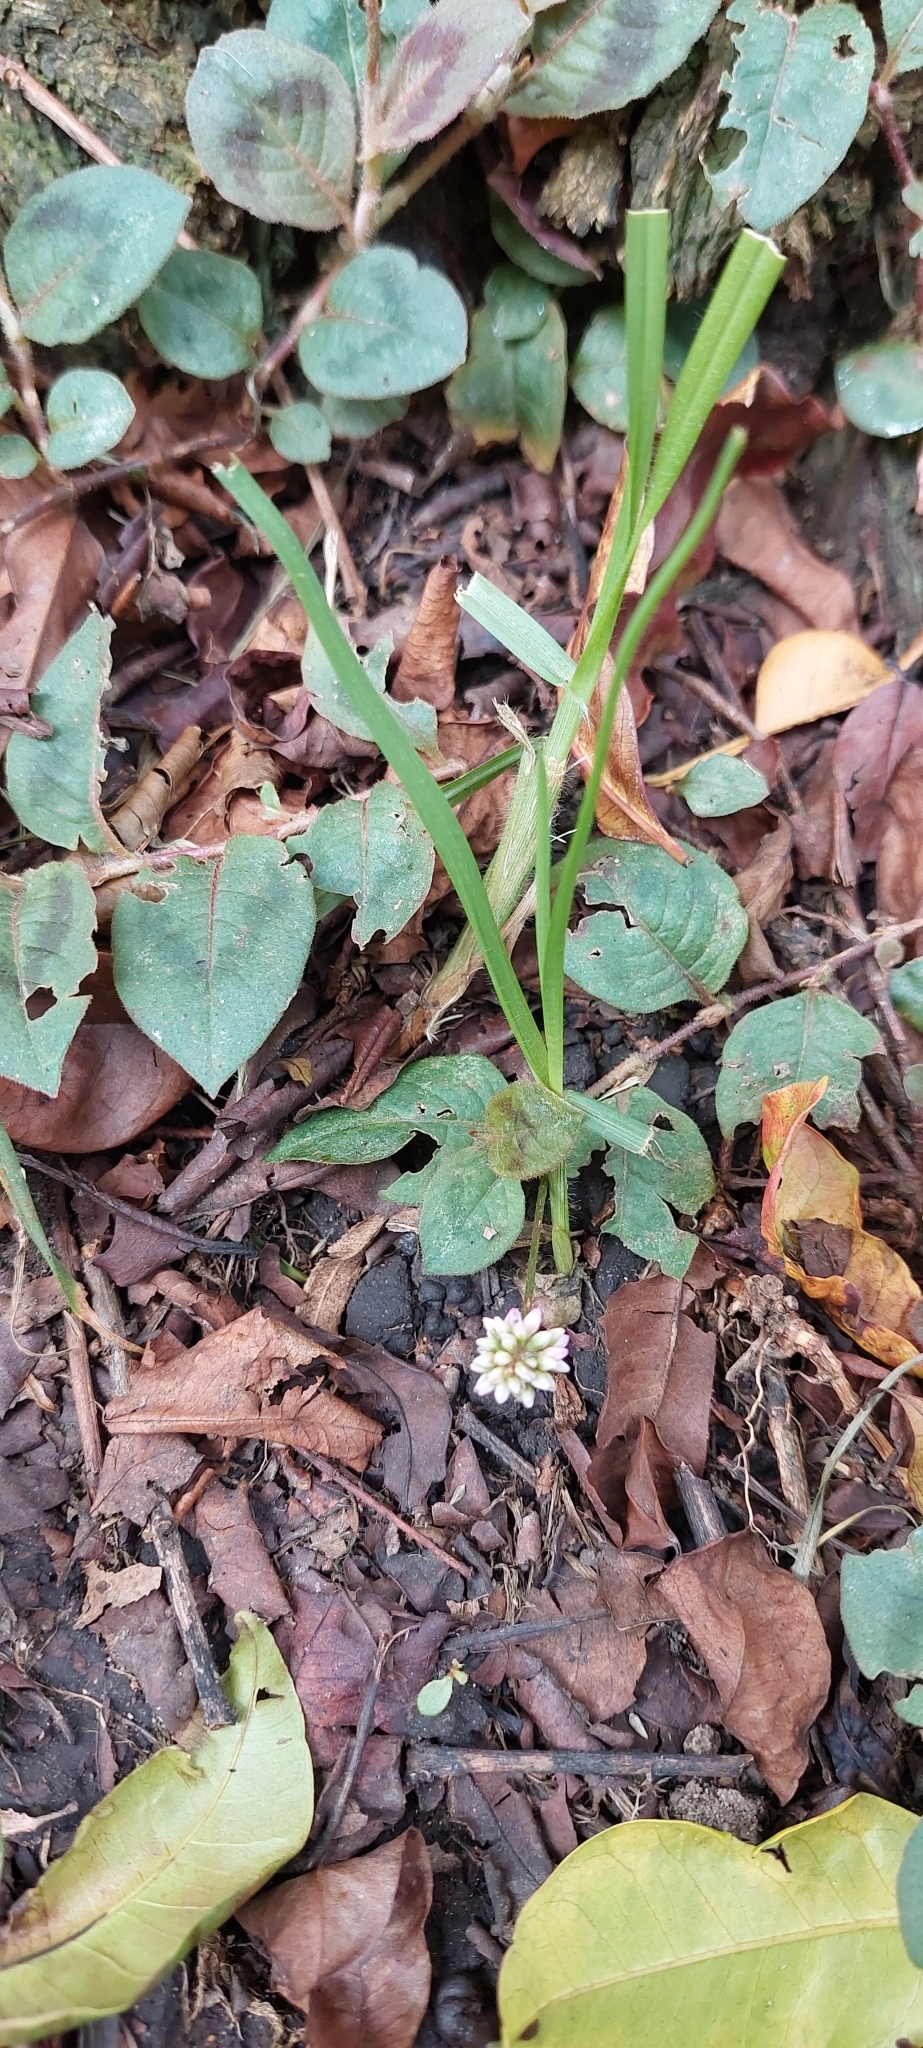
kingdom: Plantae
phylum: Tracheophyta
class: Magnoliopsida
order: Caryophyllales
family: Polygonaceae
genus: Persicaria
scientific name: Persicaria capitata
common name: Pinkhead smartweed
